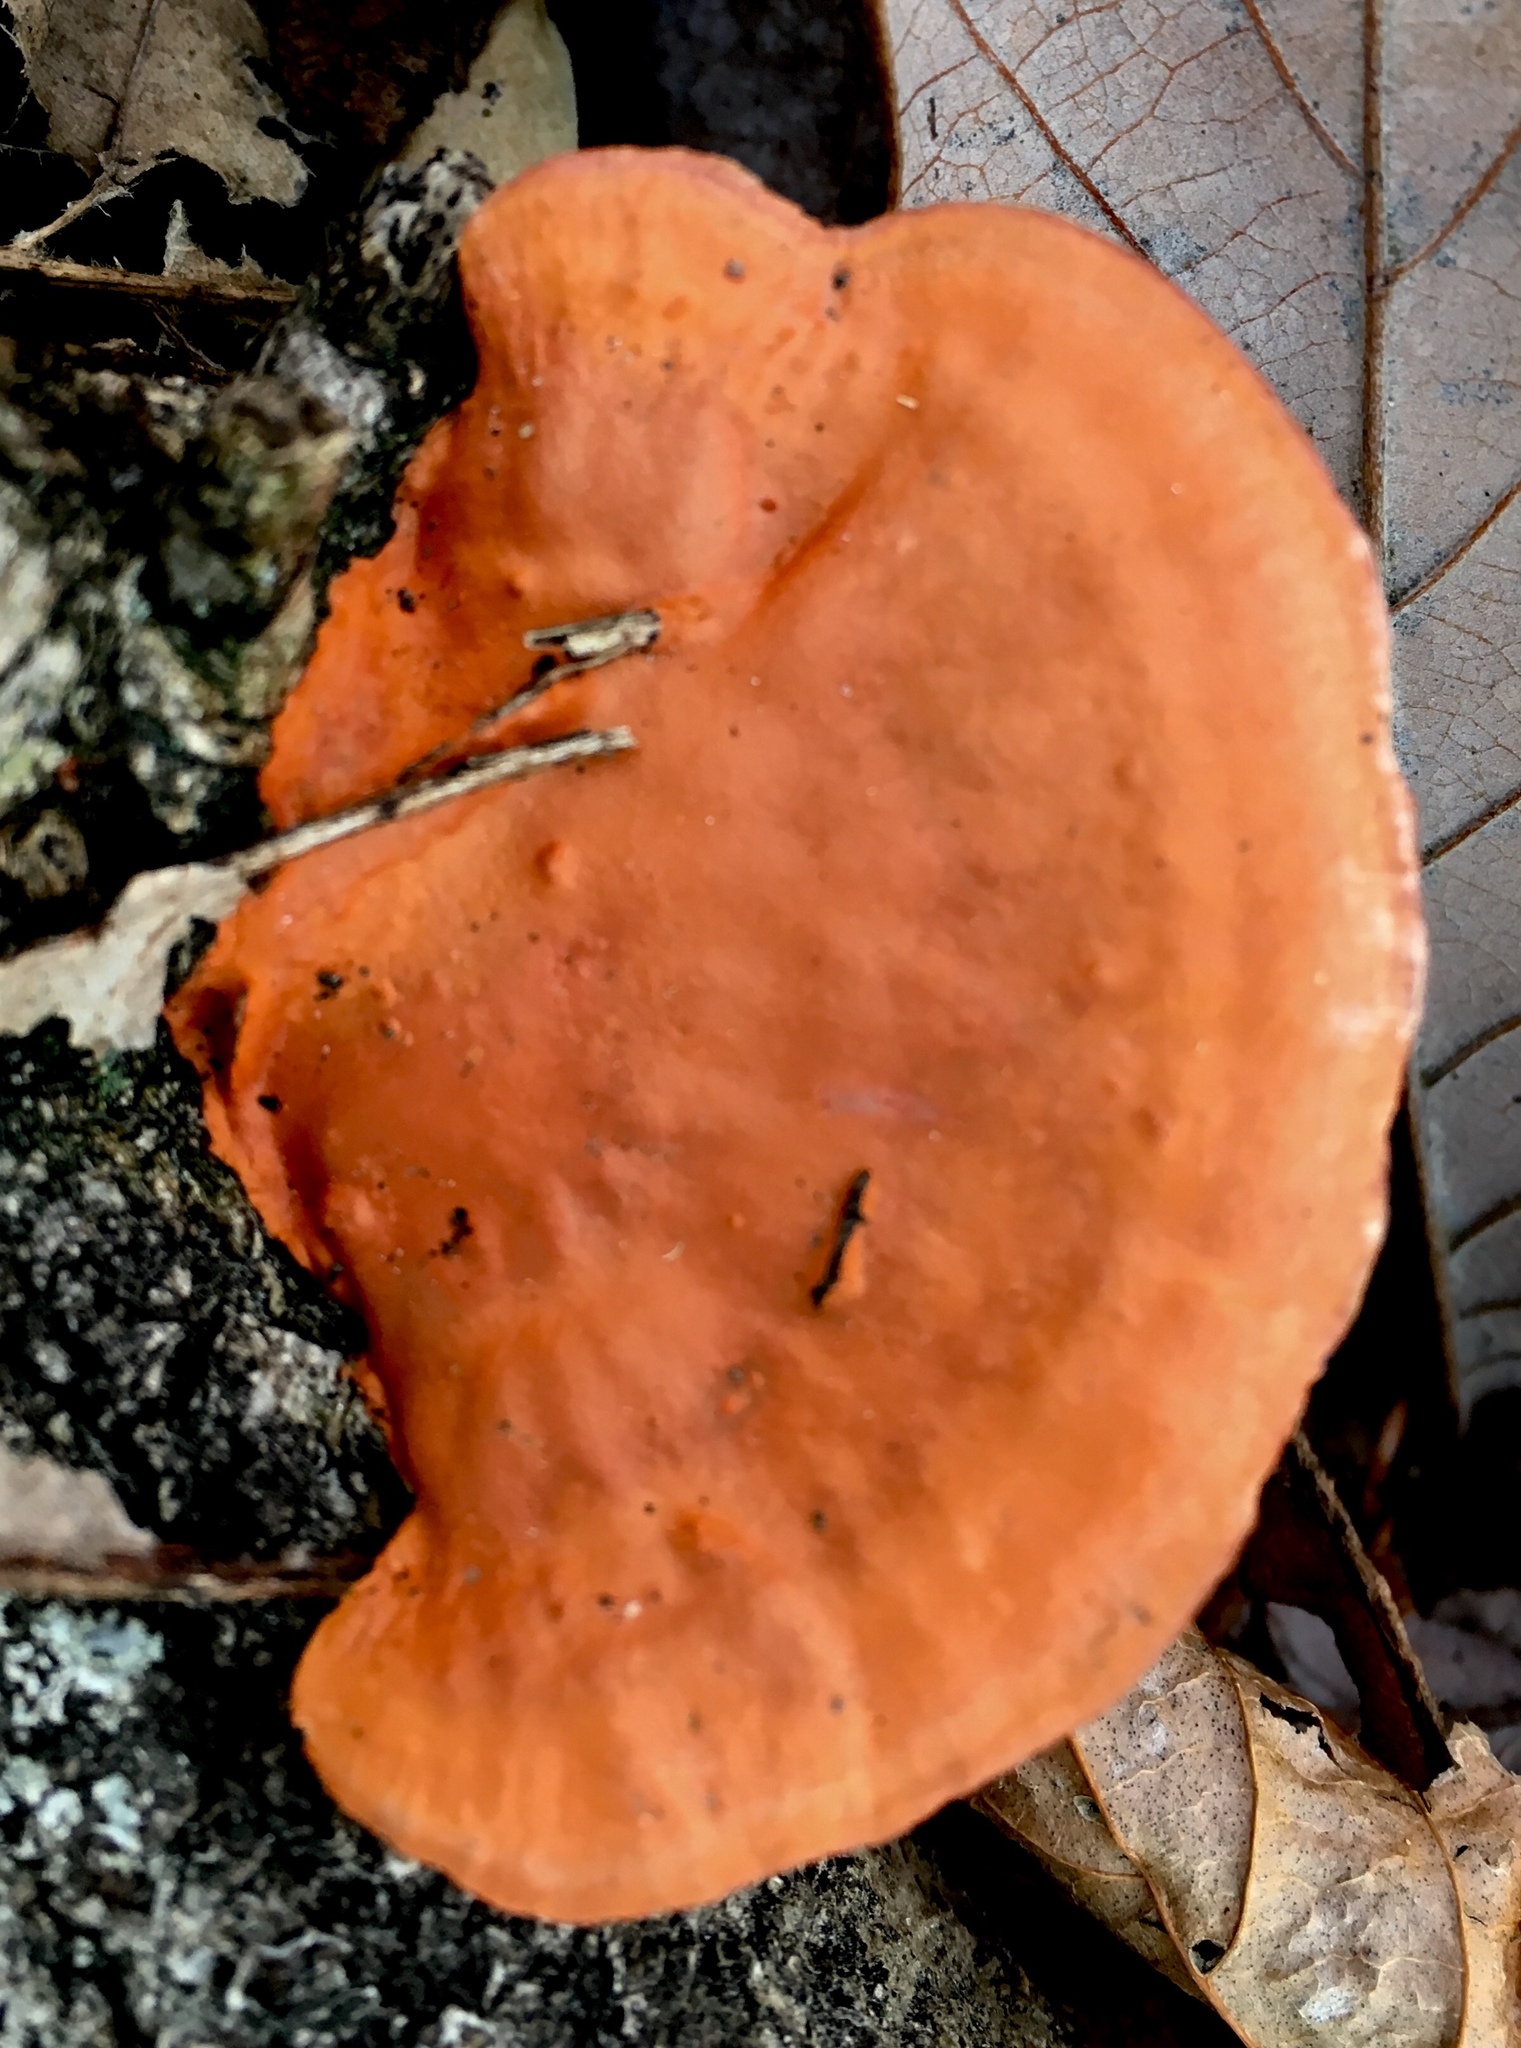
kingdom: Fungi
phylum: Basidiomycota
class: Agaricomycetes
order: Polyporales
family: Polyporaceae
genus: Trametes
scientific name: Trametes cinnabarina
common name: Northern cinnabar polypore
